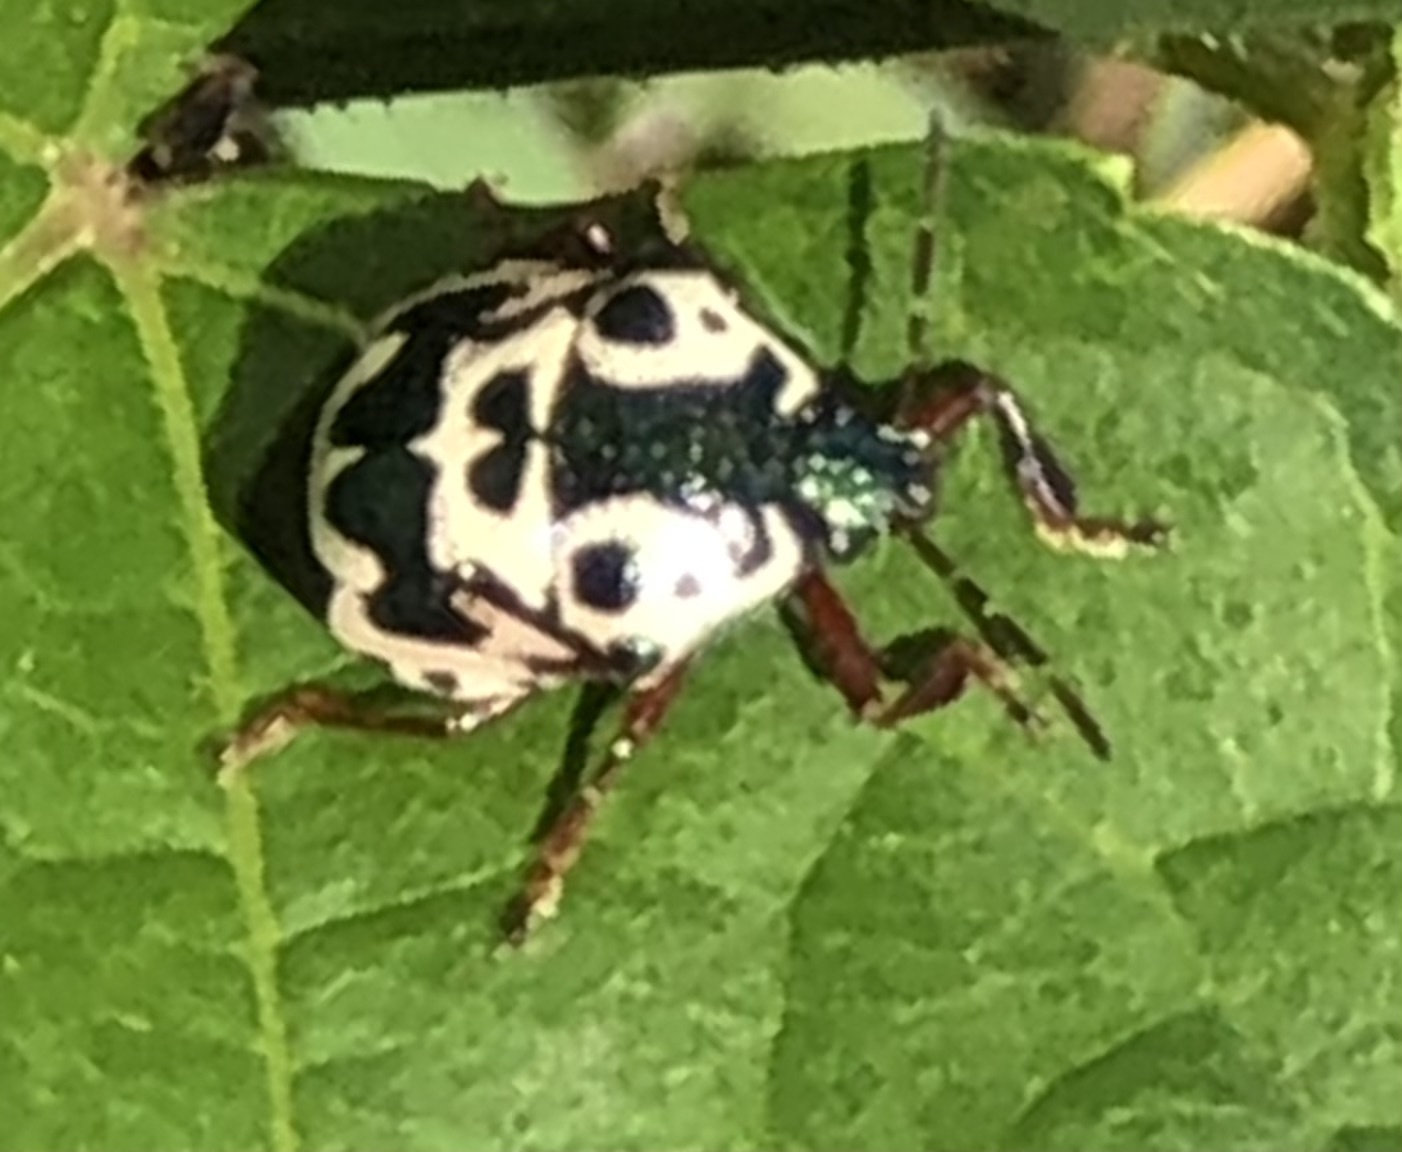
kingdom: Animalia
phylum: Arthropoda
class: Insecta
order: Hemiptera
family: Pentatomidae
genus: Stiretrus
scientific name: Stiretrus anchorago
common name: Anchor stink bug
